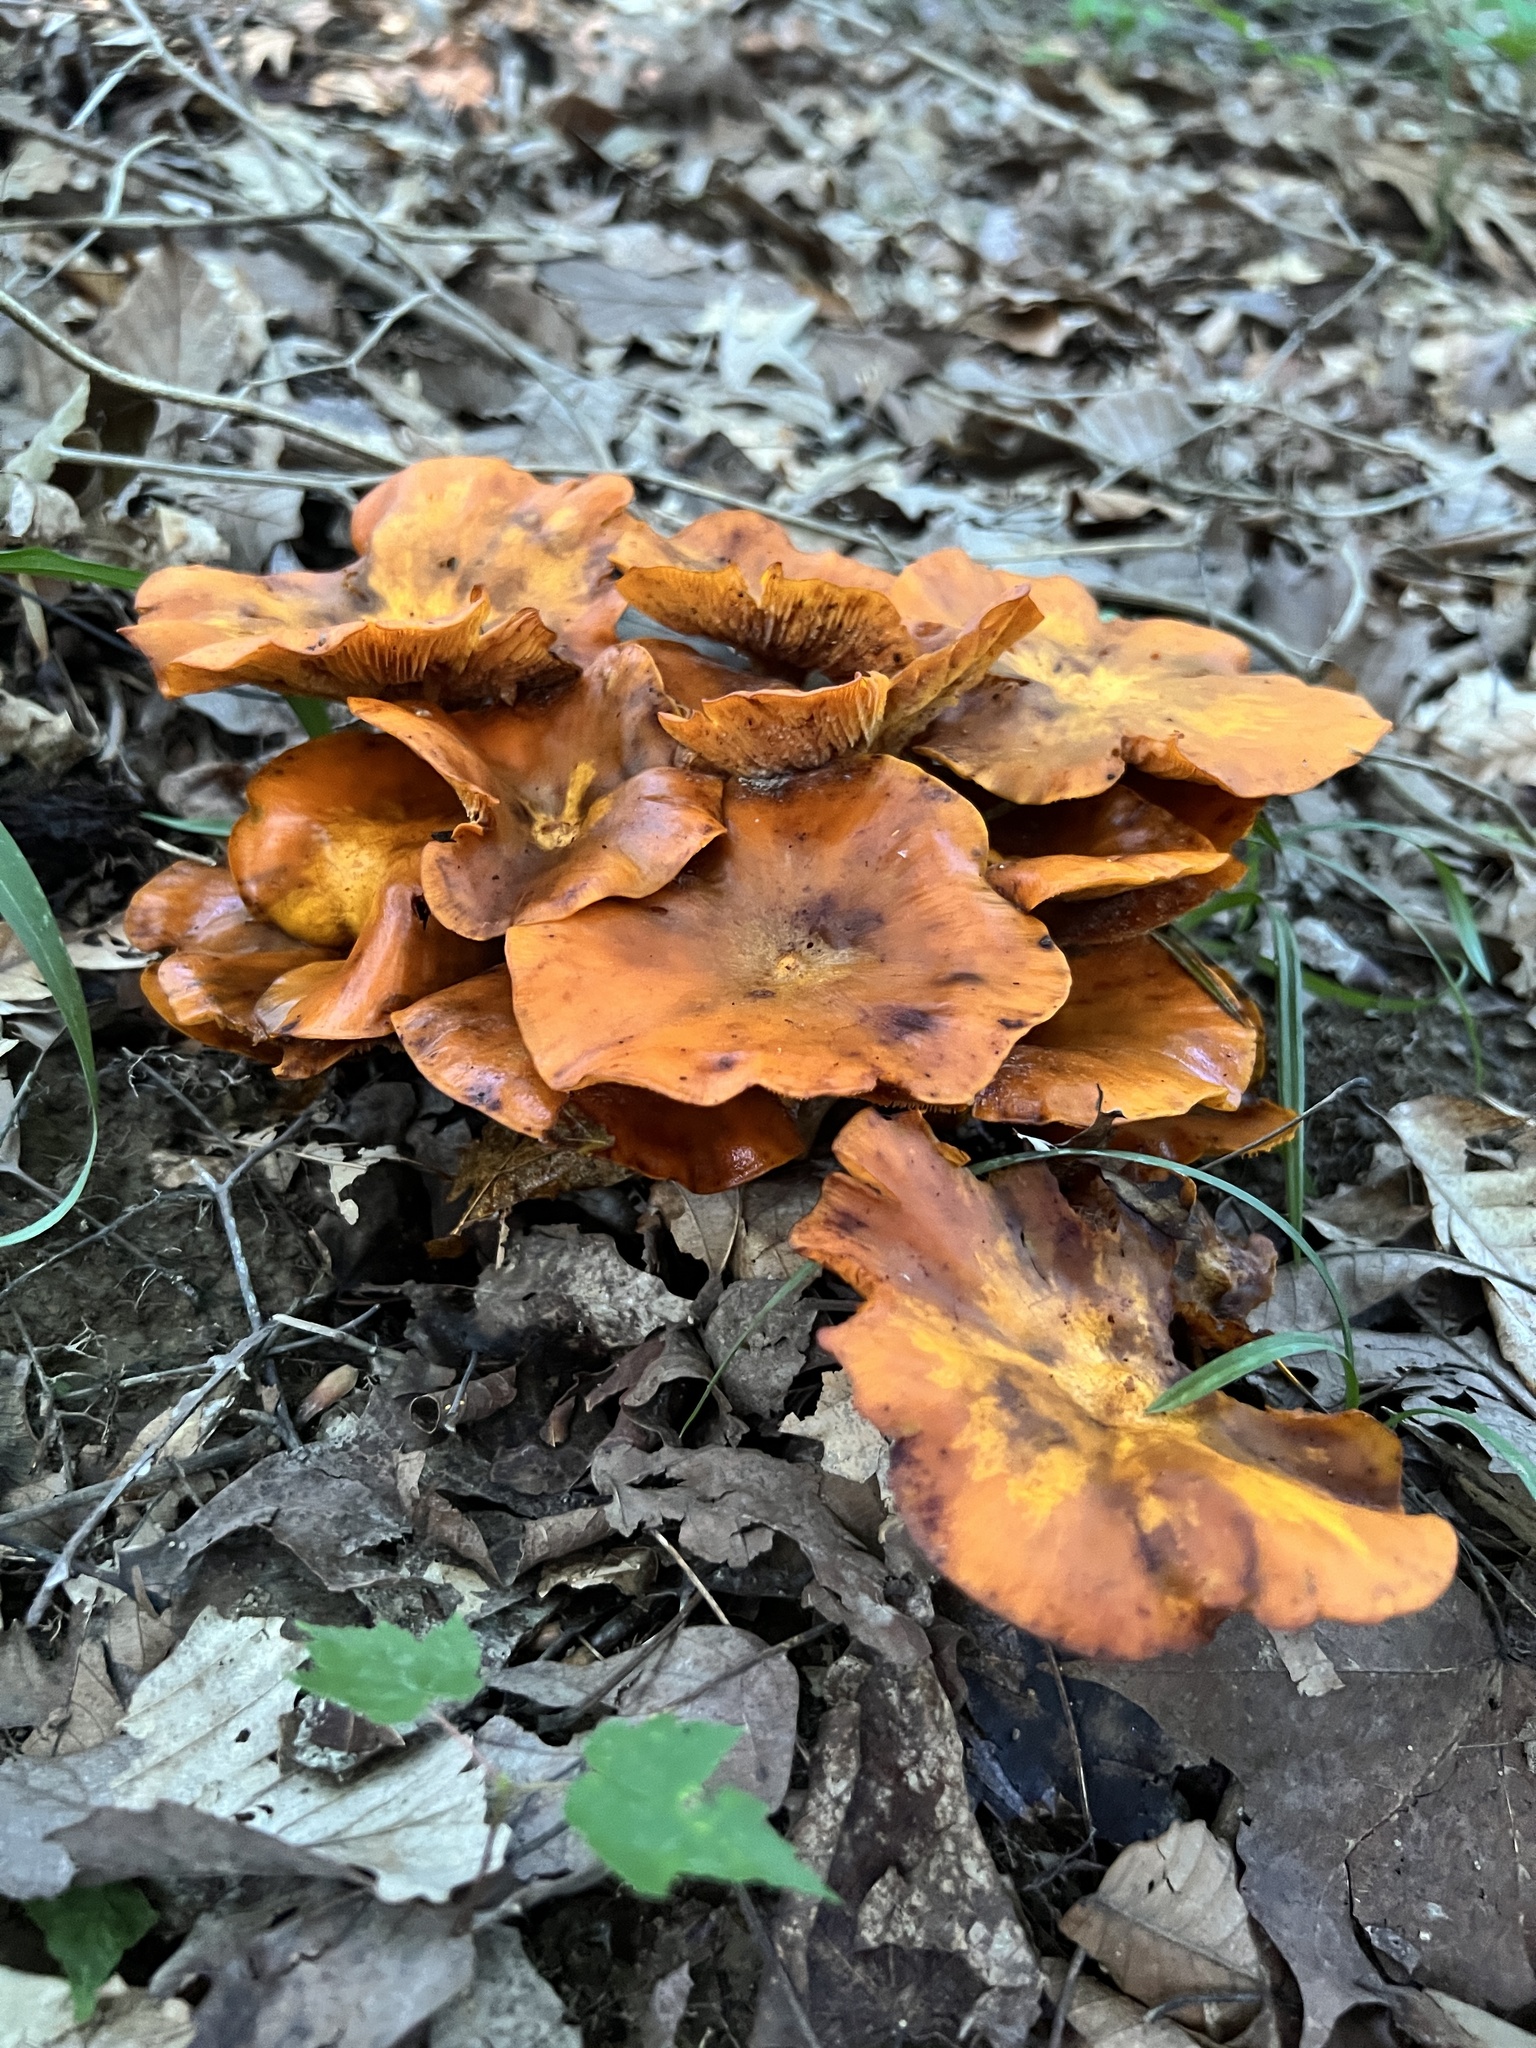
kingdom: Fungi
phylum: Basidiomycota
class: Agaricomycetes
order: Agaricales
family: Omphalotaceae
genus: Omphalotus
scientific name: Omphalotus illudens
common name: Jack o lantern
